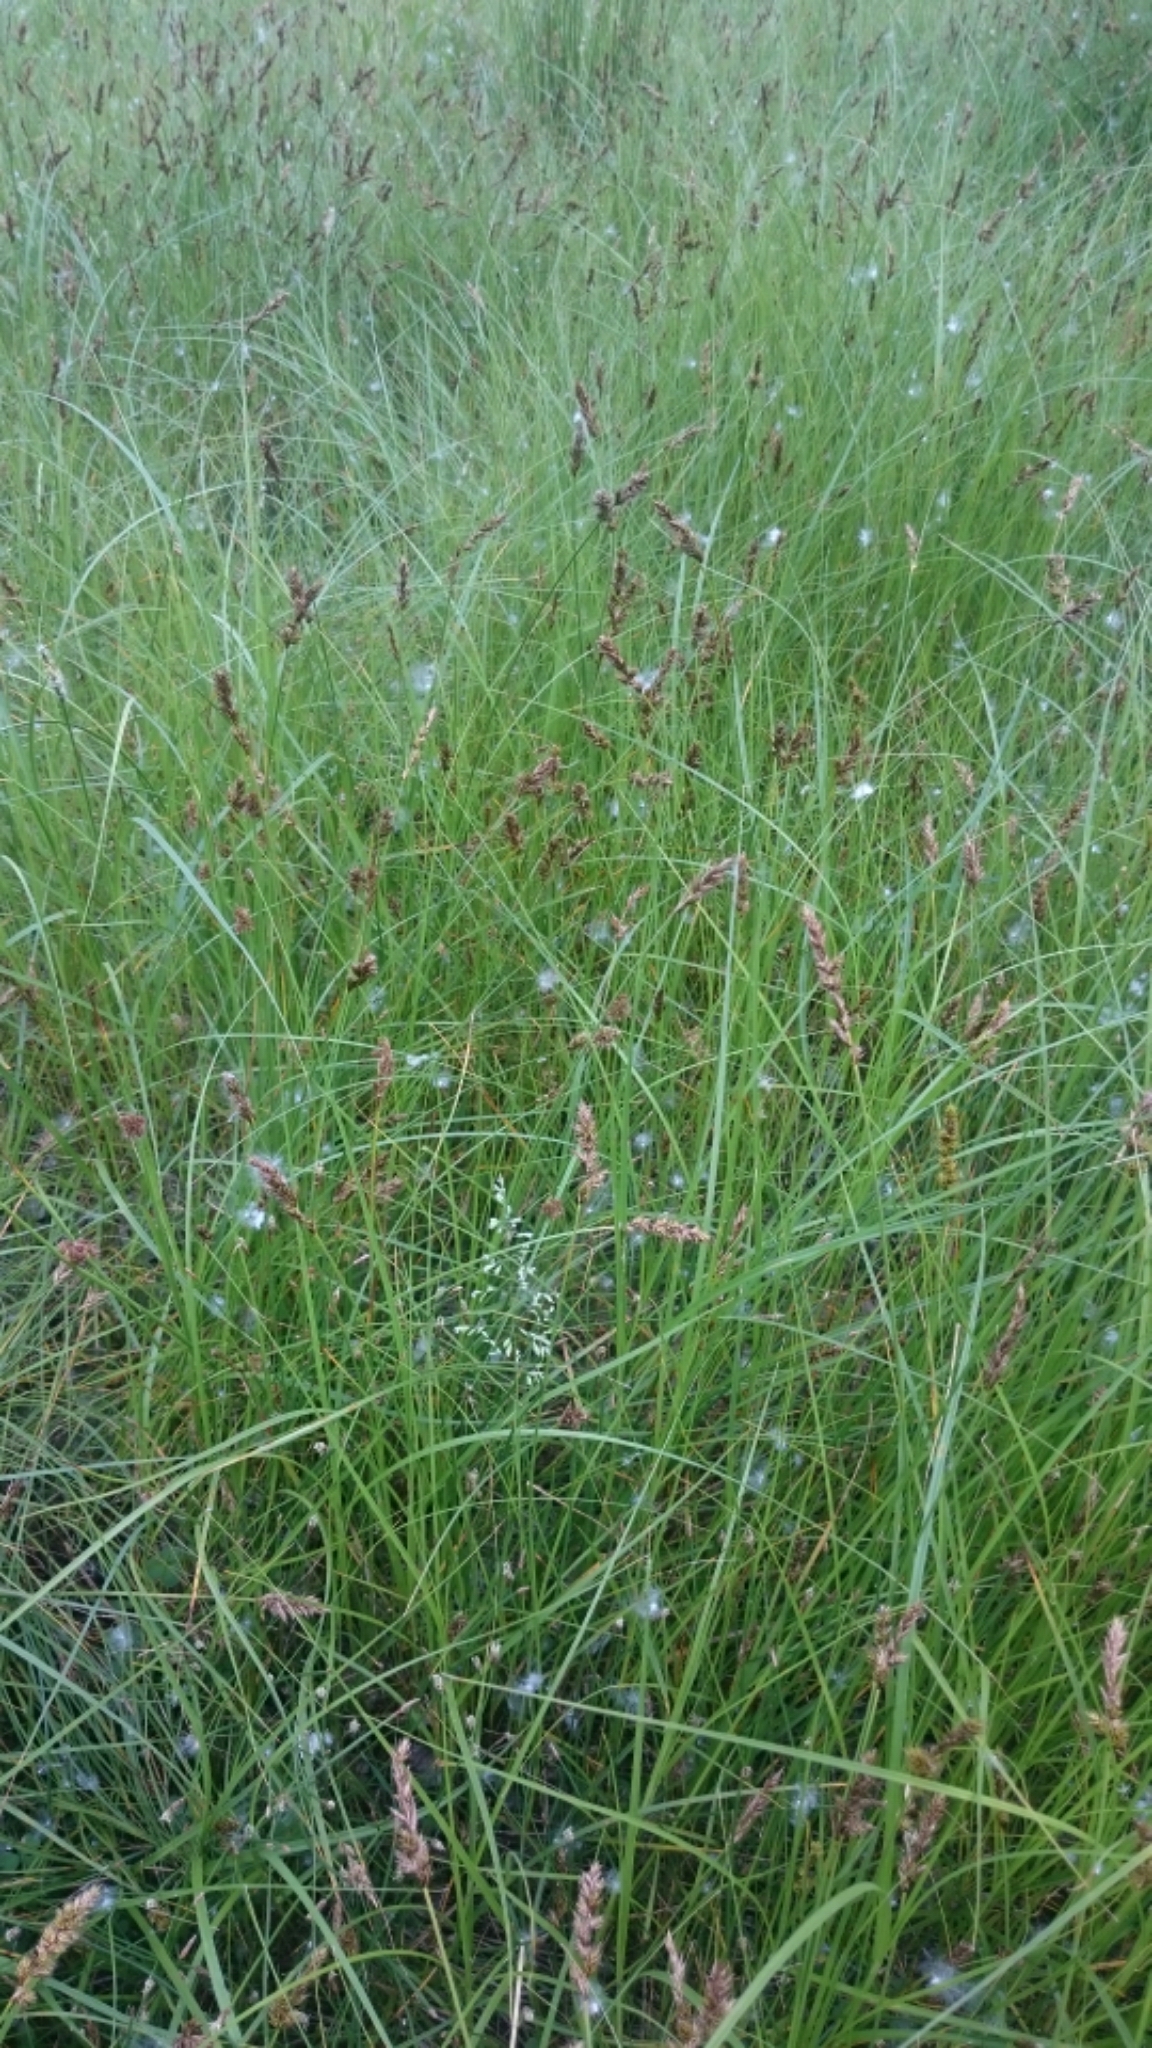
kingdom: Plantae
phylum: Tracheophyta
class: Liliopsida
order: Poales
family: Cyperaceae
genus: Carex
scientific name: Carex disticha
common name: Brown sedge
